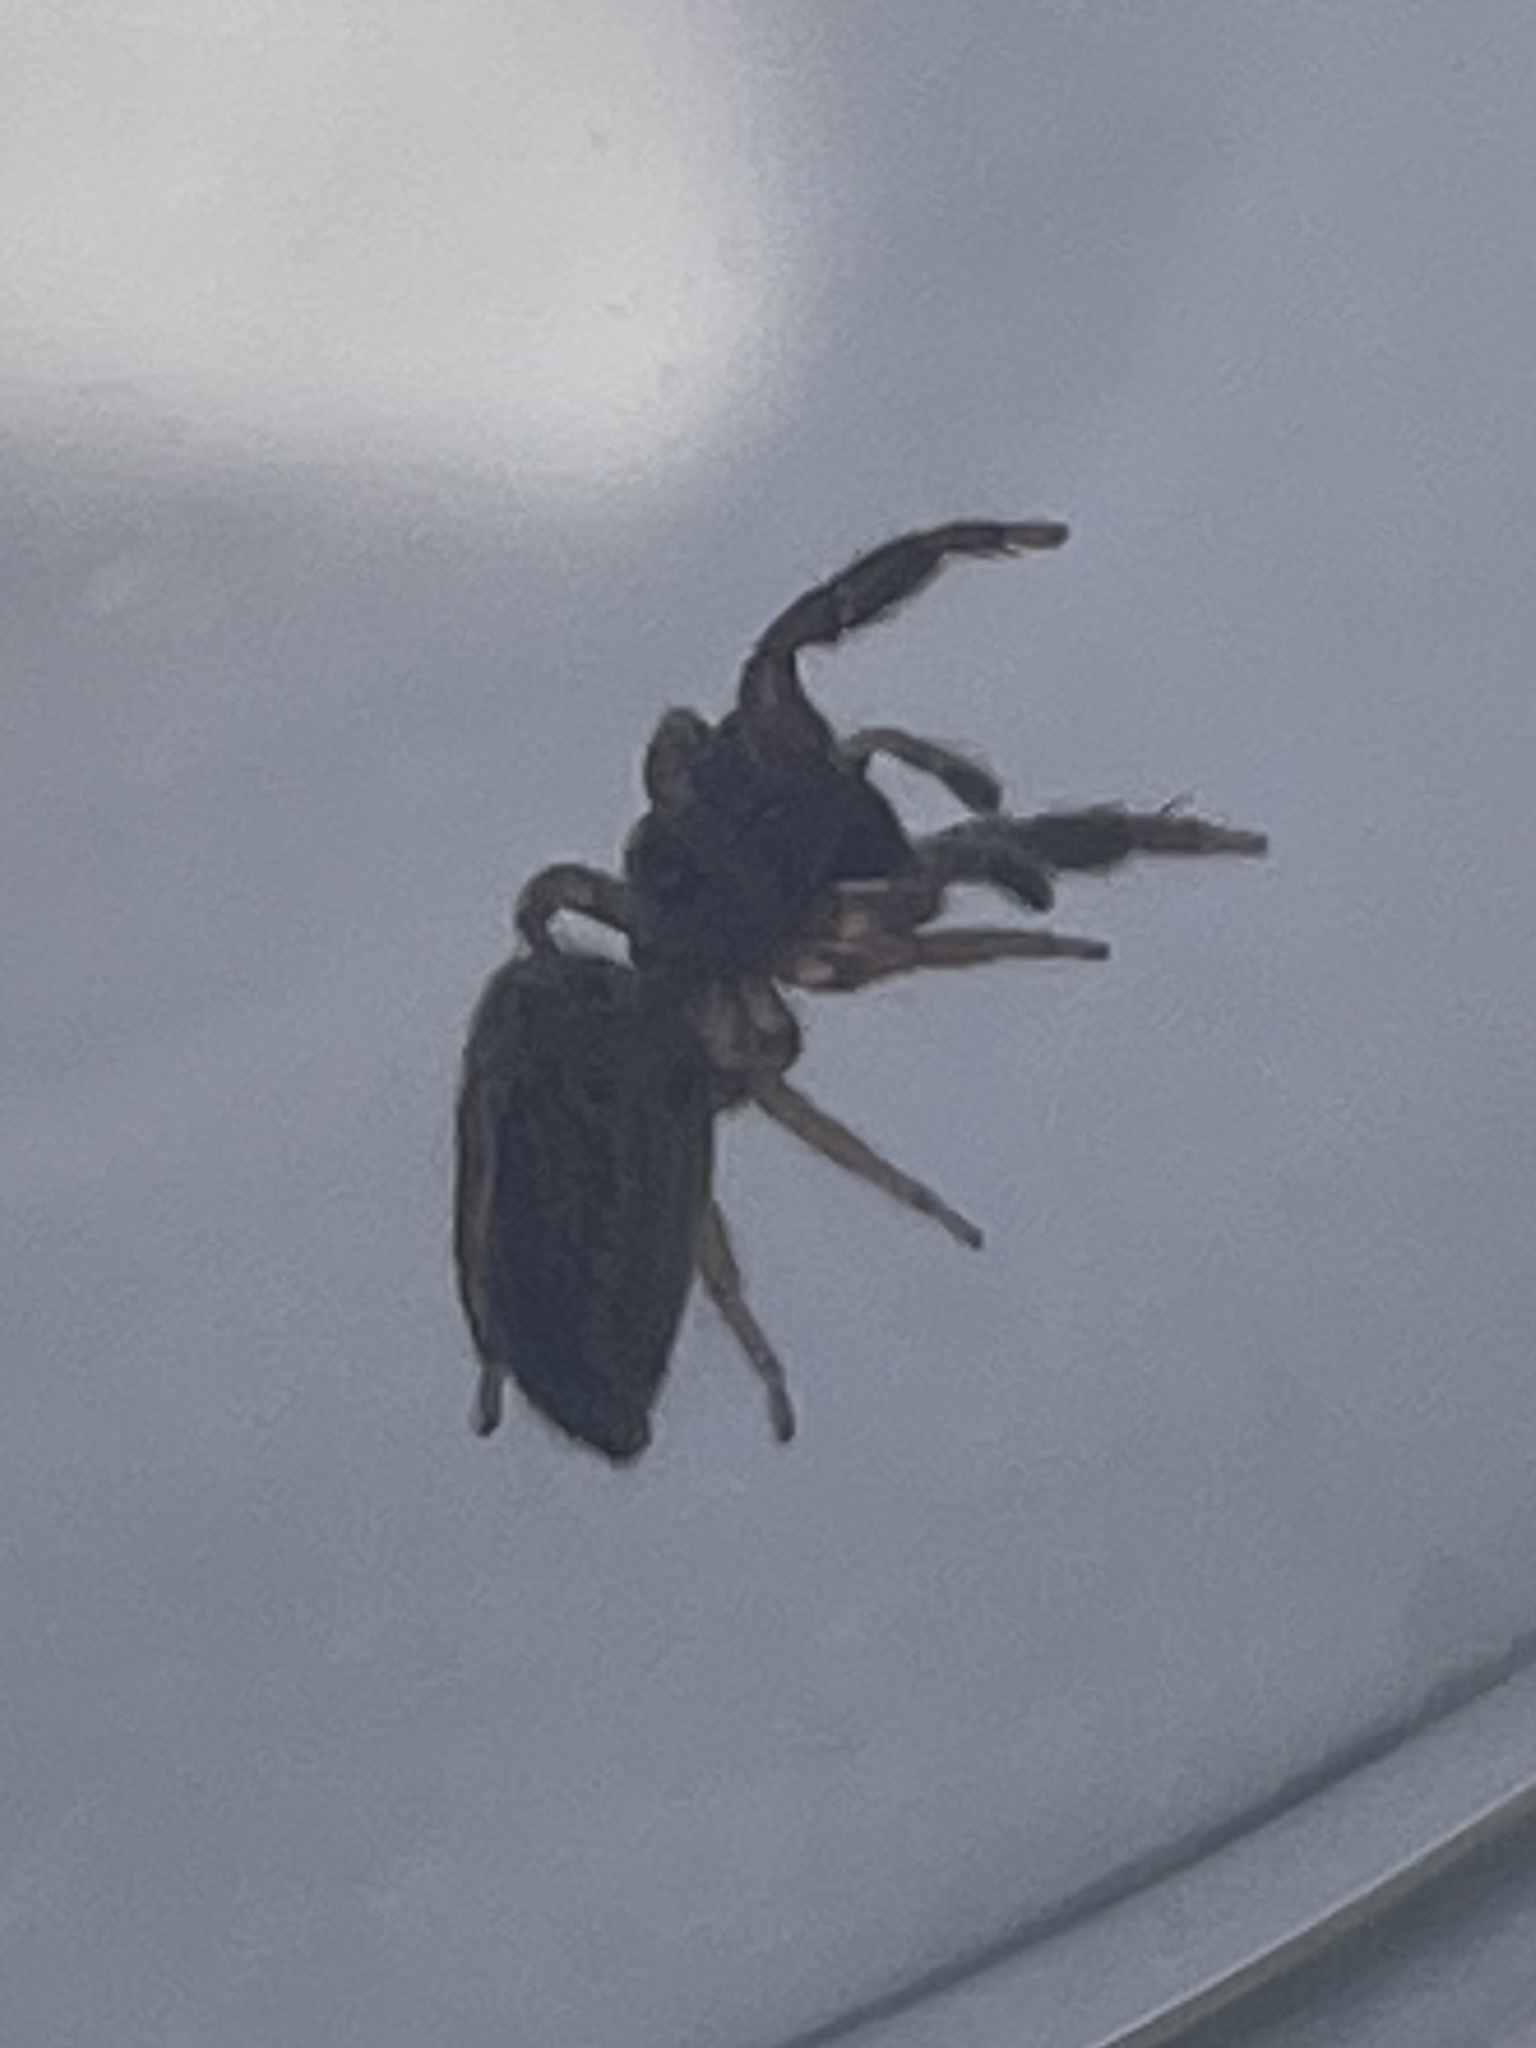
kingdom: Animalia
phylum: Arthropoda
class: Arachnida
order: Araneae
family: Salticidae
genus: Marpissa
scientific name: Marpissa lineata
